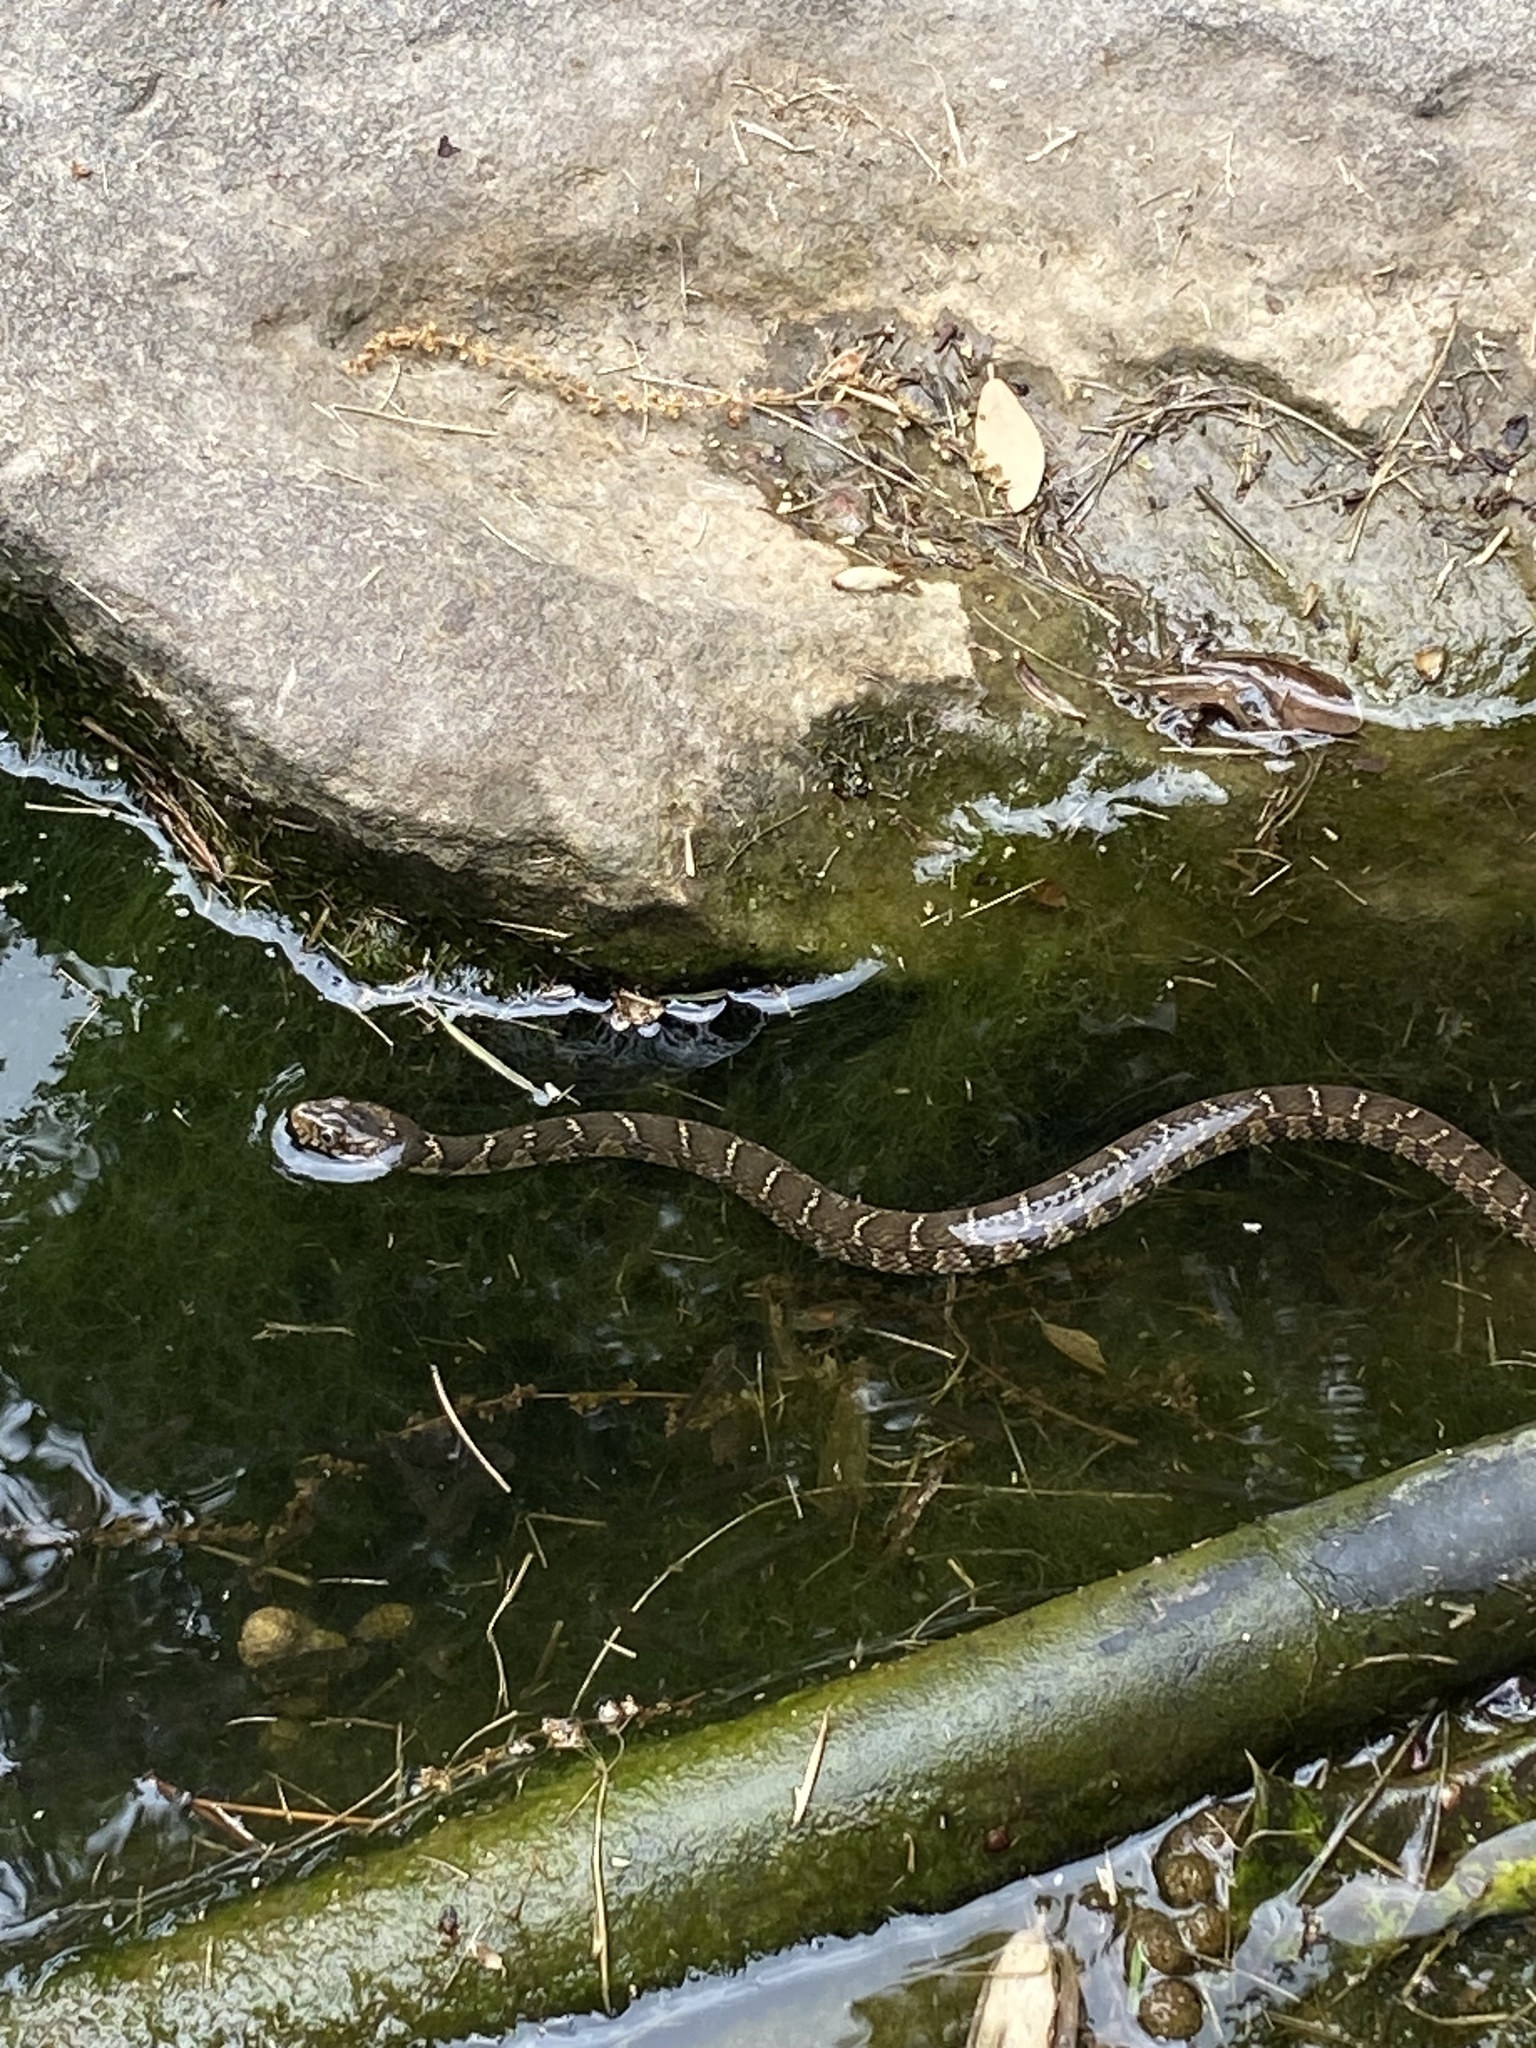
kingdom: Animalia
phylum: Chordata
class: Squamata
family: Colubridae
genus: Nerodia
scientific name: Nerodia erythrogaster
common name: Plainbelly water snake
